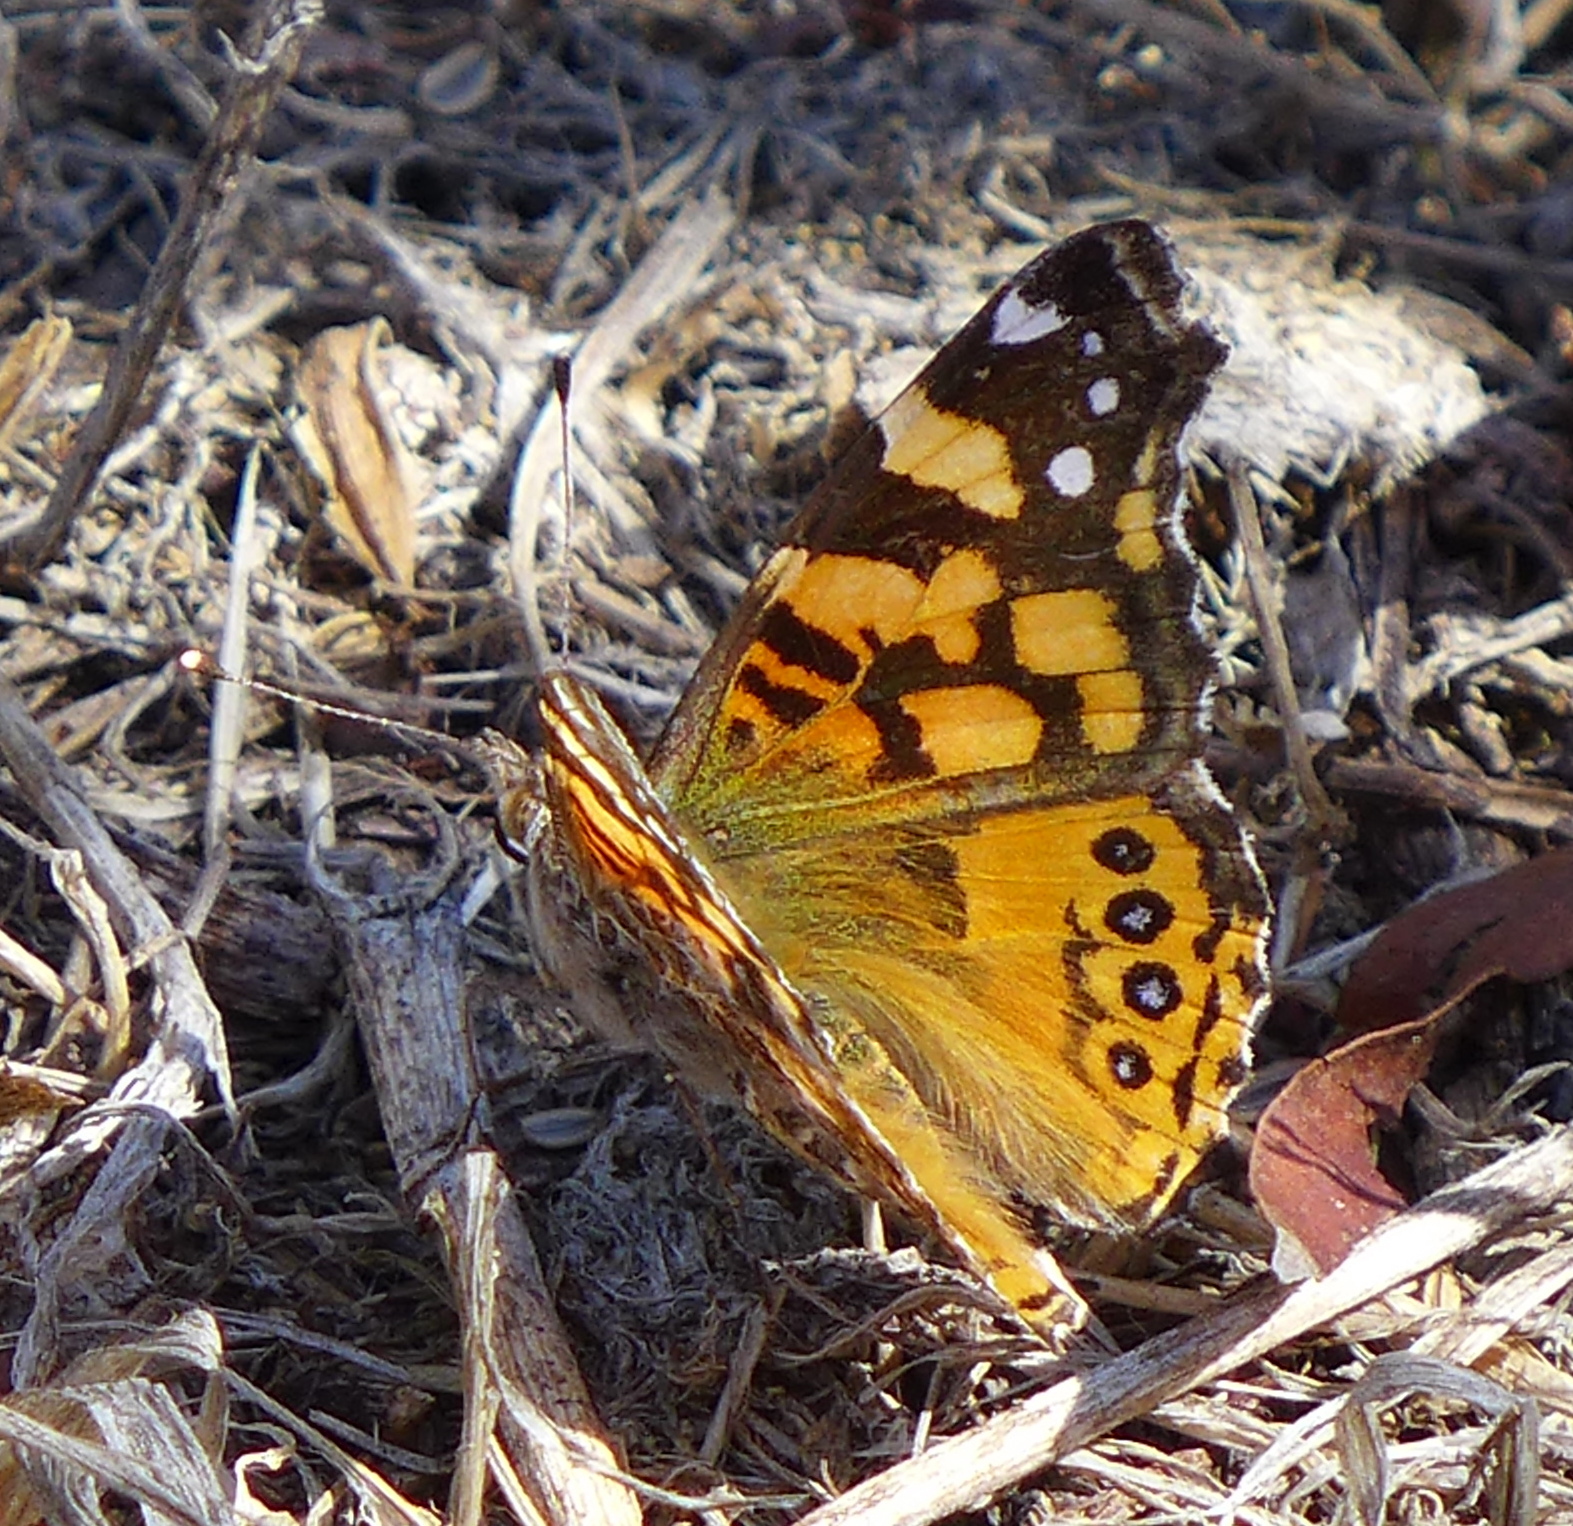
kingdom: Animalia
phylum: Arthropoda
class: Insecta
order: Lepidoptera
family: Nymphalidae
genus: Vanessa
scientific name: Vanessa annabella
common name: West coast lady
